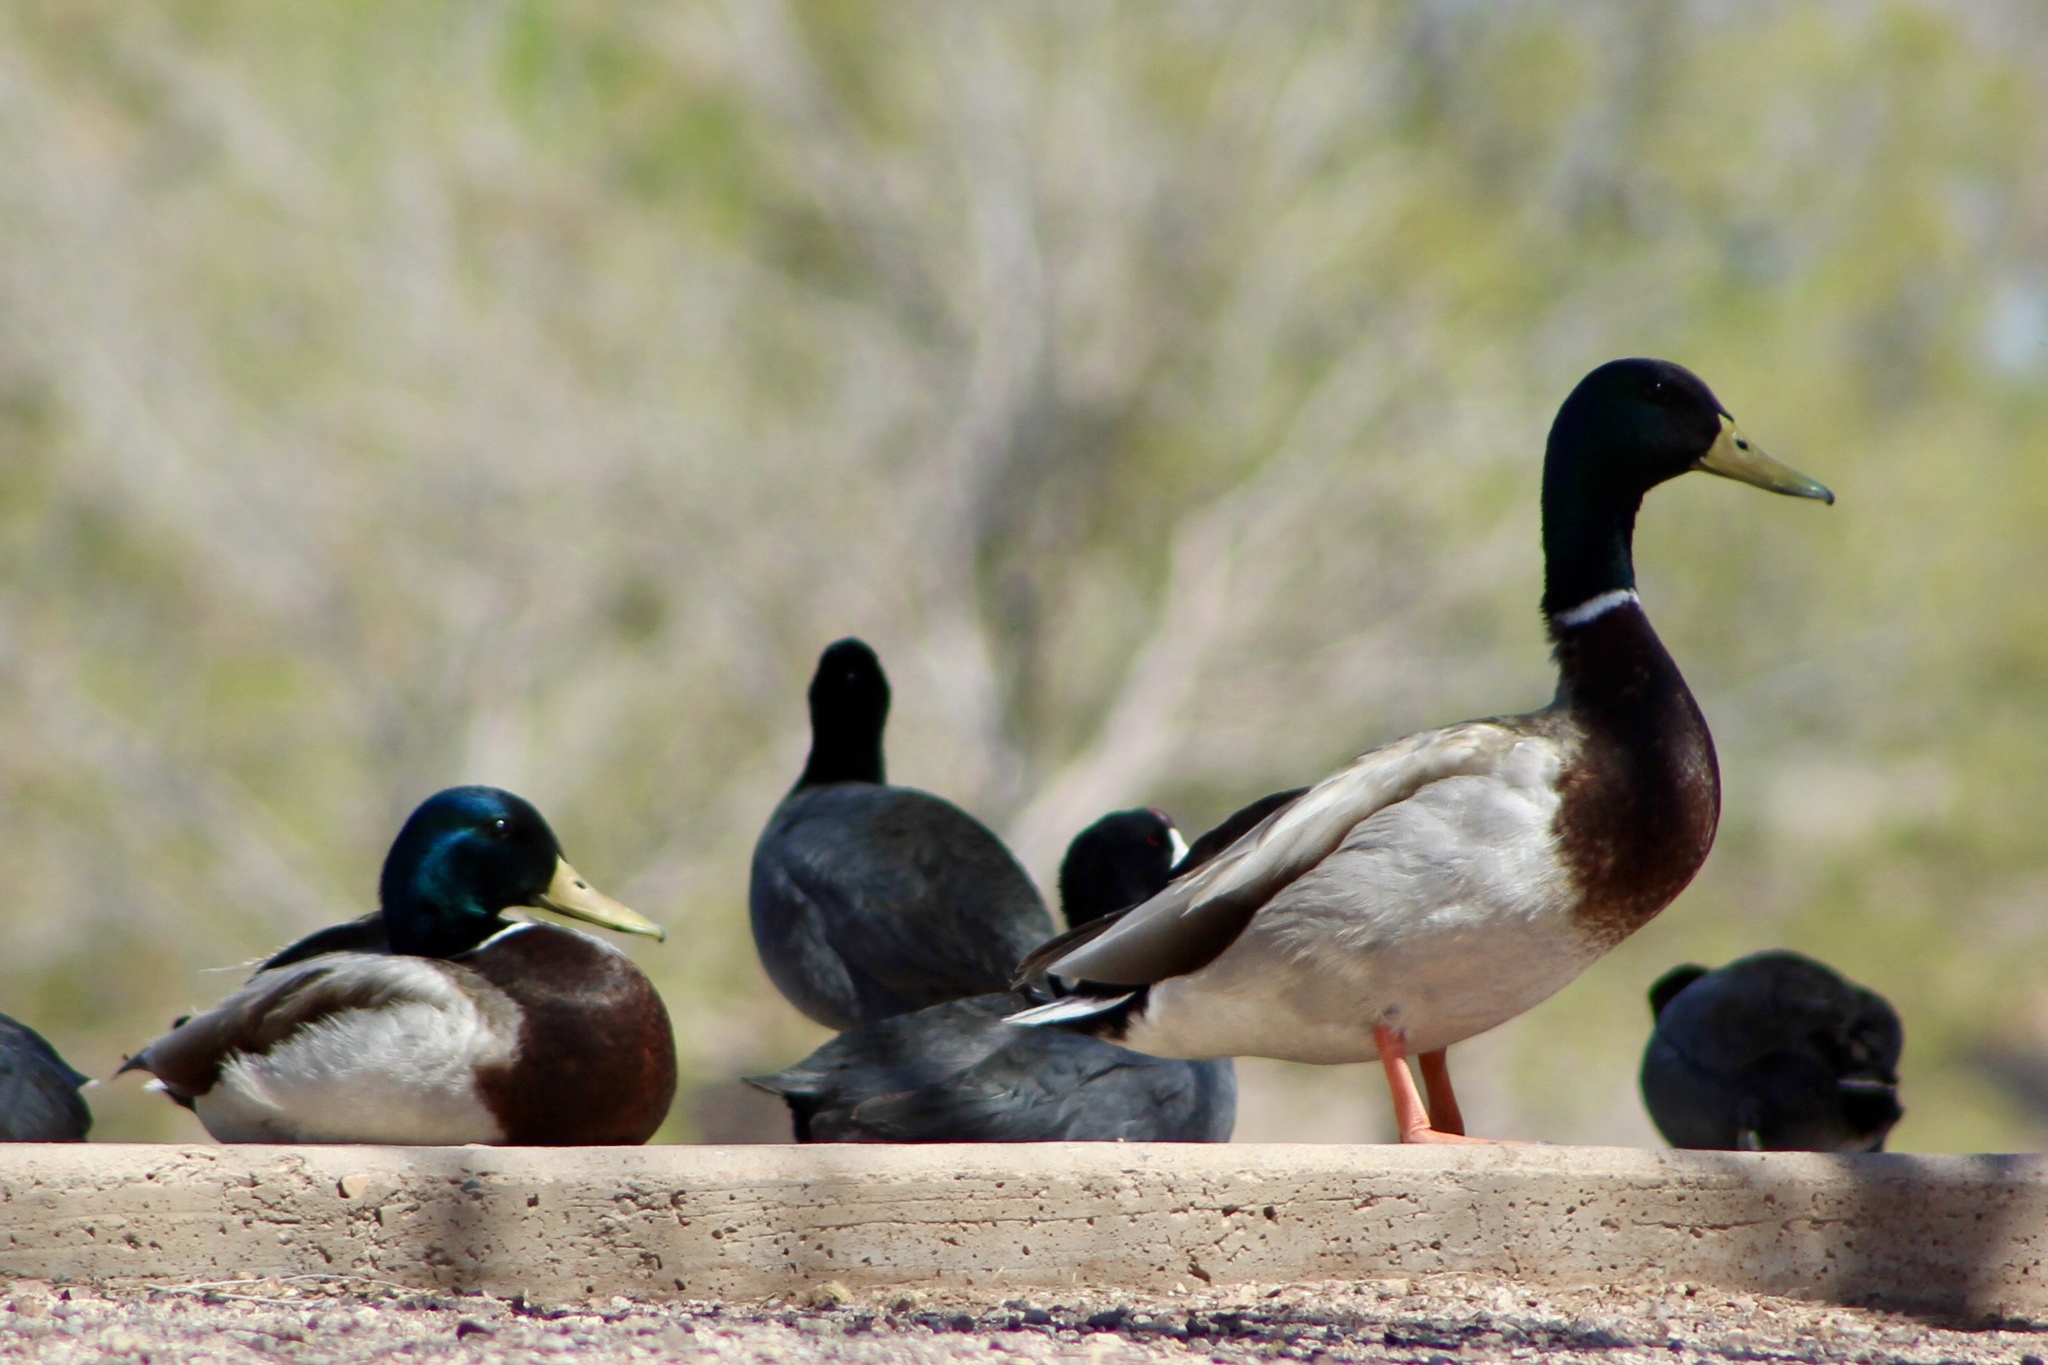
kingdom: Animalia
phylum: Chordata
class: Aves
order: Anseriformes
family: Anatidae
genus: Anas
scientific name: Anas platyrhynchos
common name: Mallard
